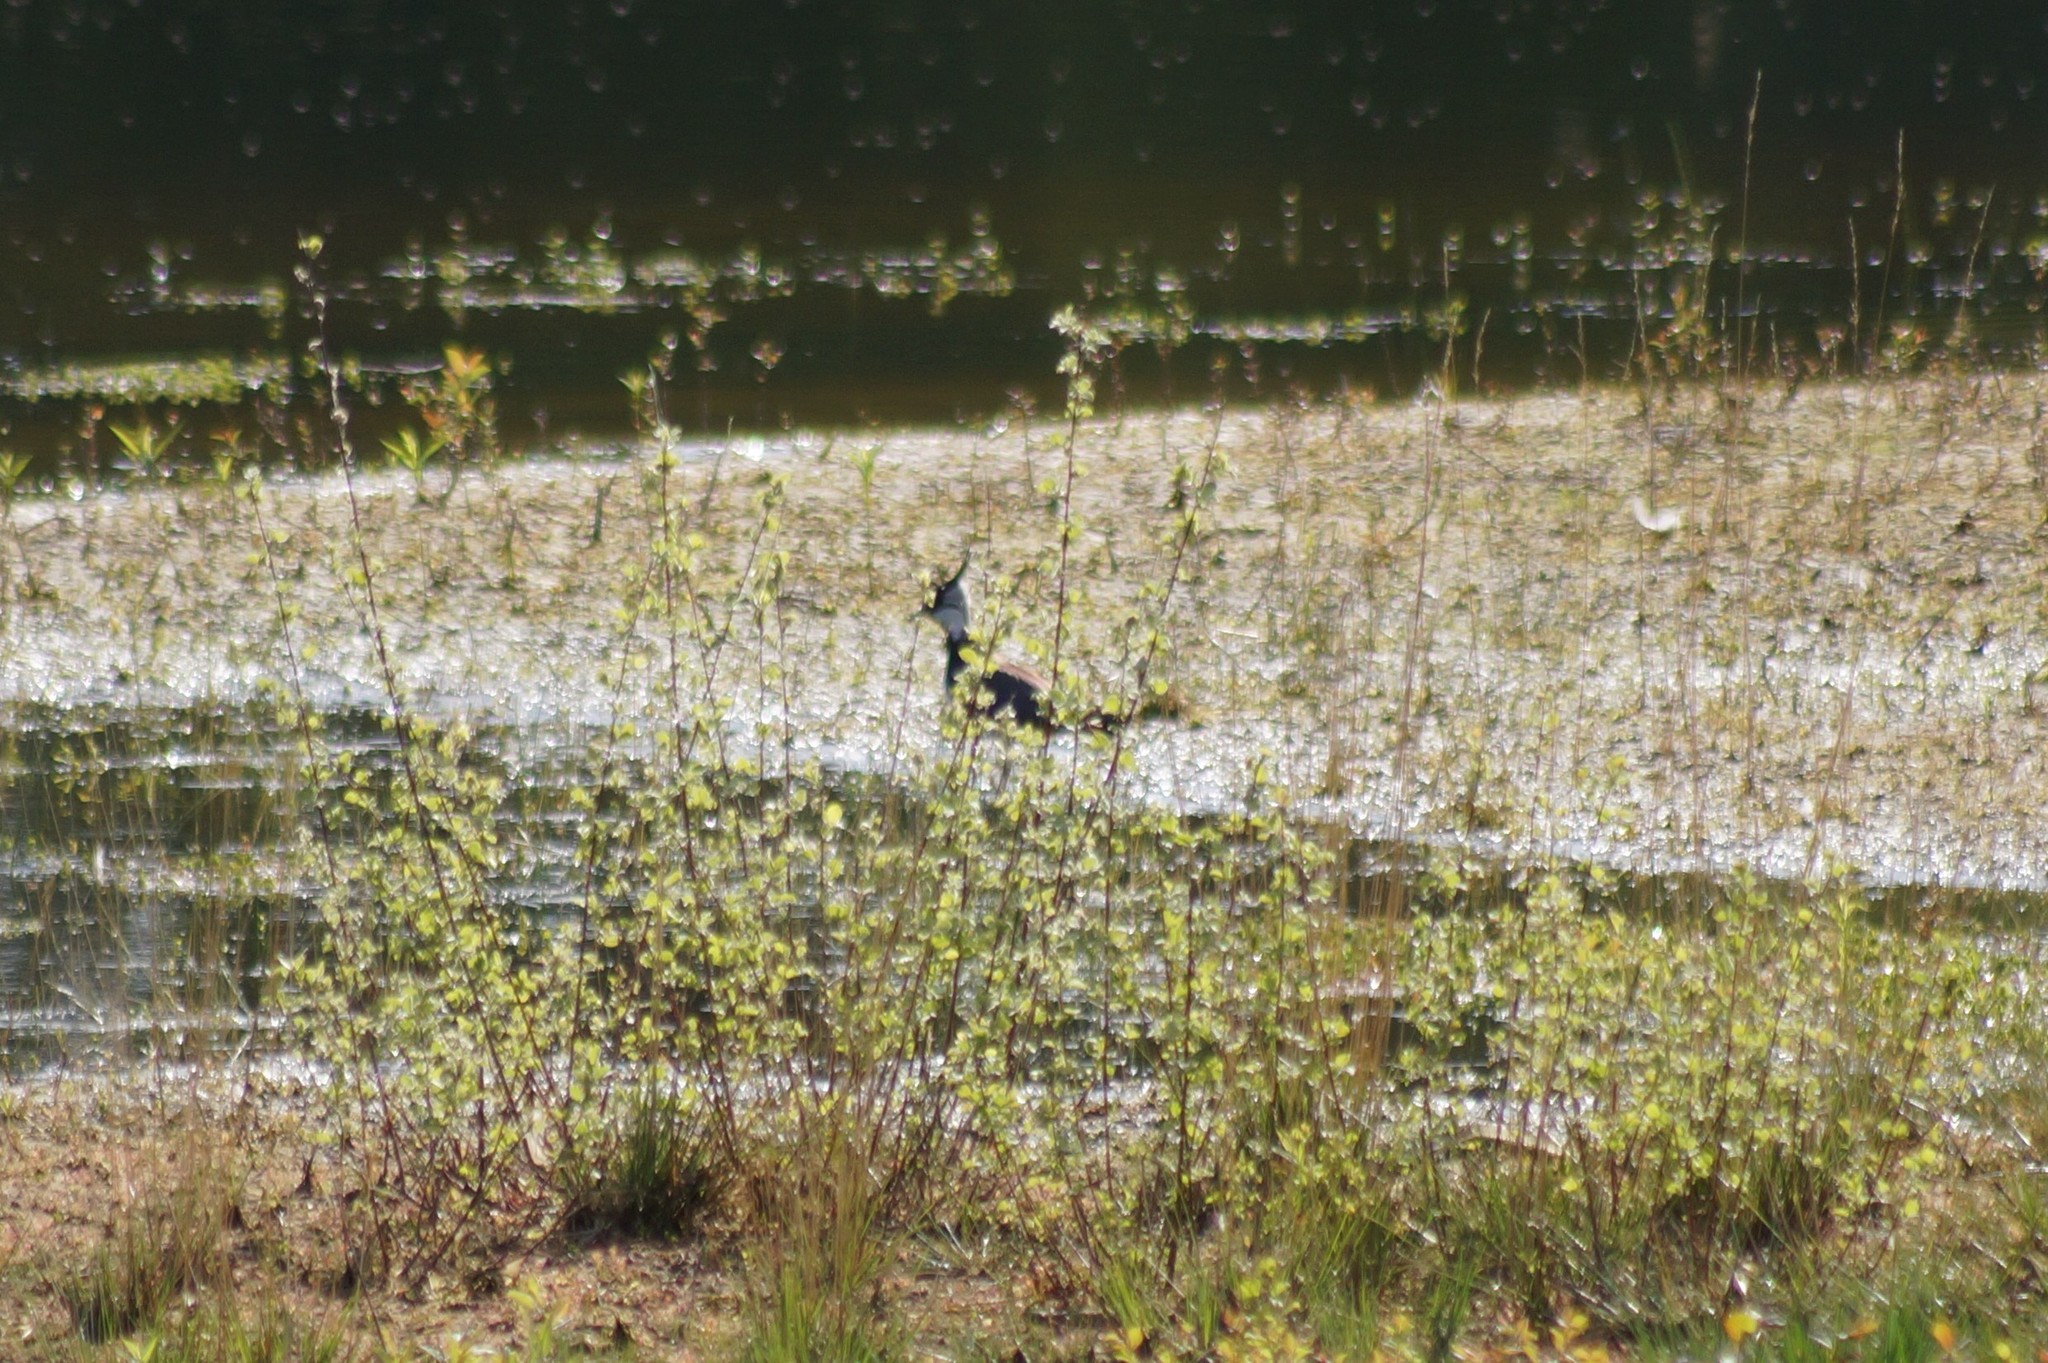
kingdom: Animalia
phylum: Chordata
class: Aves
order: Charadriiformes
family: Charadriidae
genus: Vanellus
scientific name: Vanellus vanellus
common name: Northern lapwing
